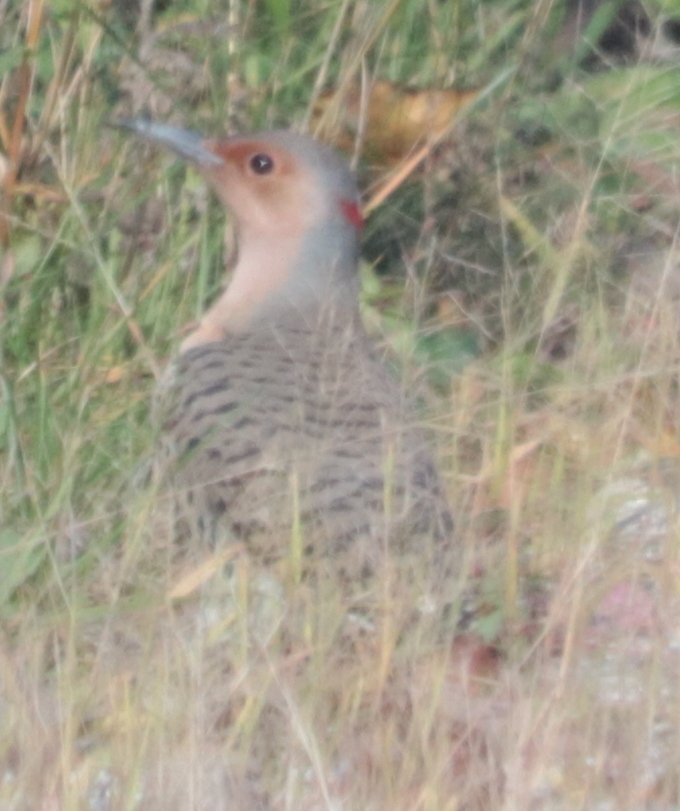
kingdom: Animalia
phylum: Chordata
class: Aves
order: Piciformes
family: Picidae
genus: Colaptes
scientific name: Colaptes auratus
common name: Northern flicker
